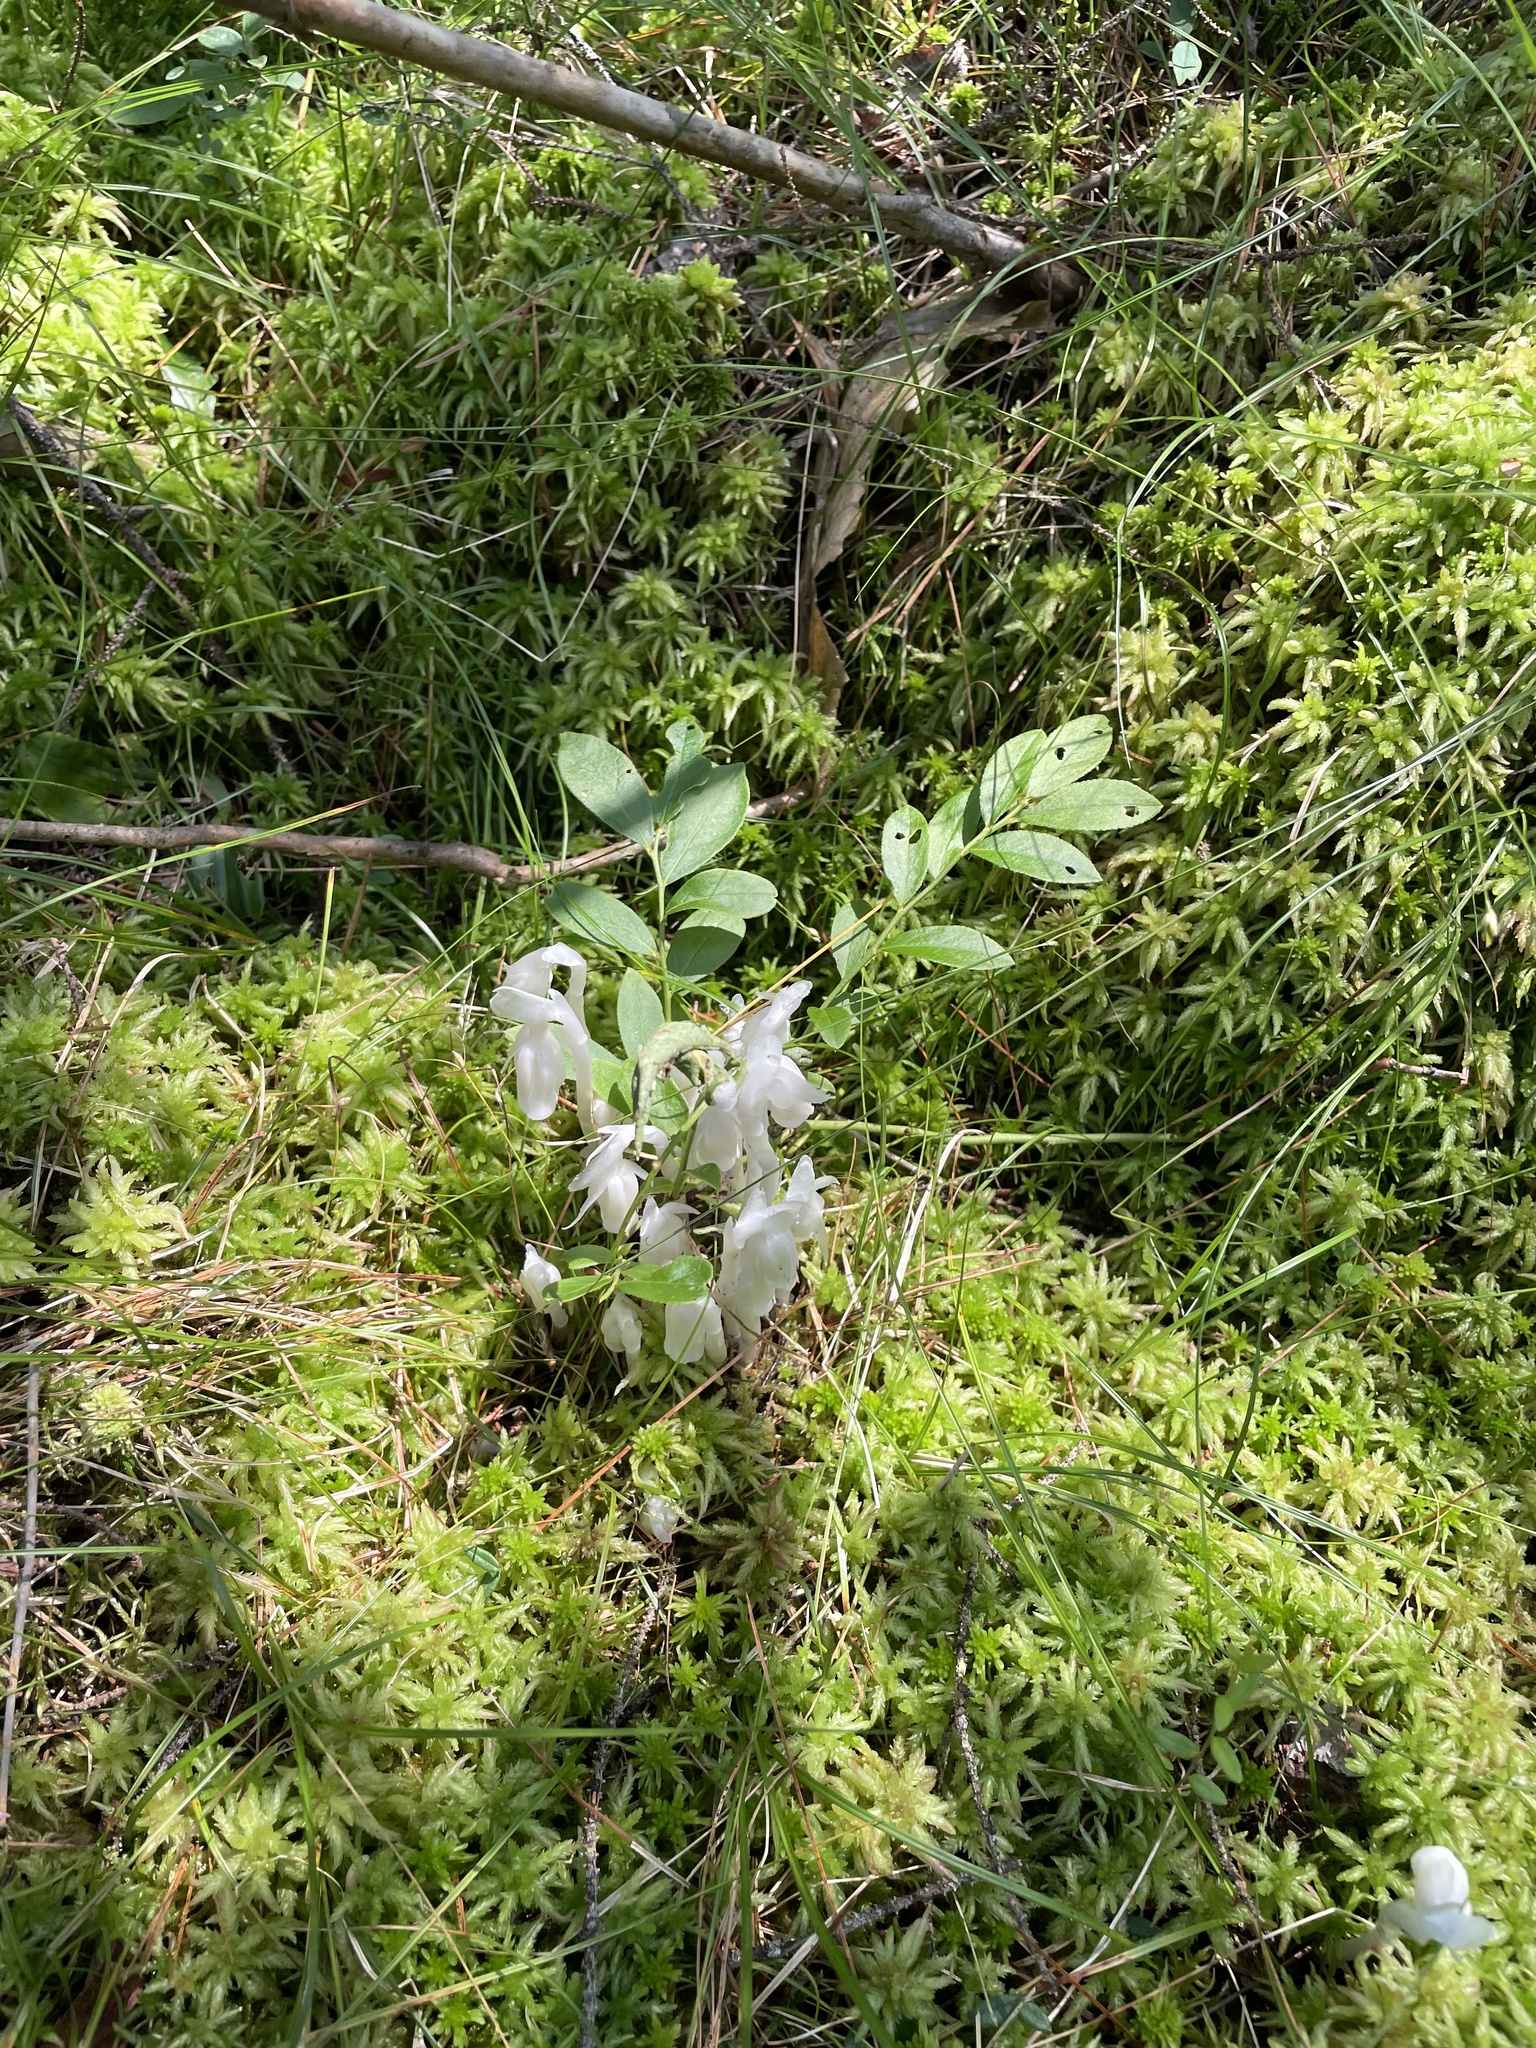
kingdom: Plantae
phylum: Tracheophyta
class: Magnoliopsida
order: Ericales
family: Ericaceae
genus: Monotropa
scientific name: Monotropa uniflora
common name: Convulsion root
